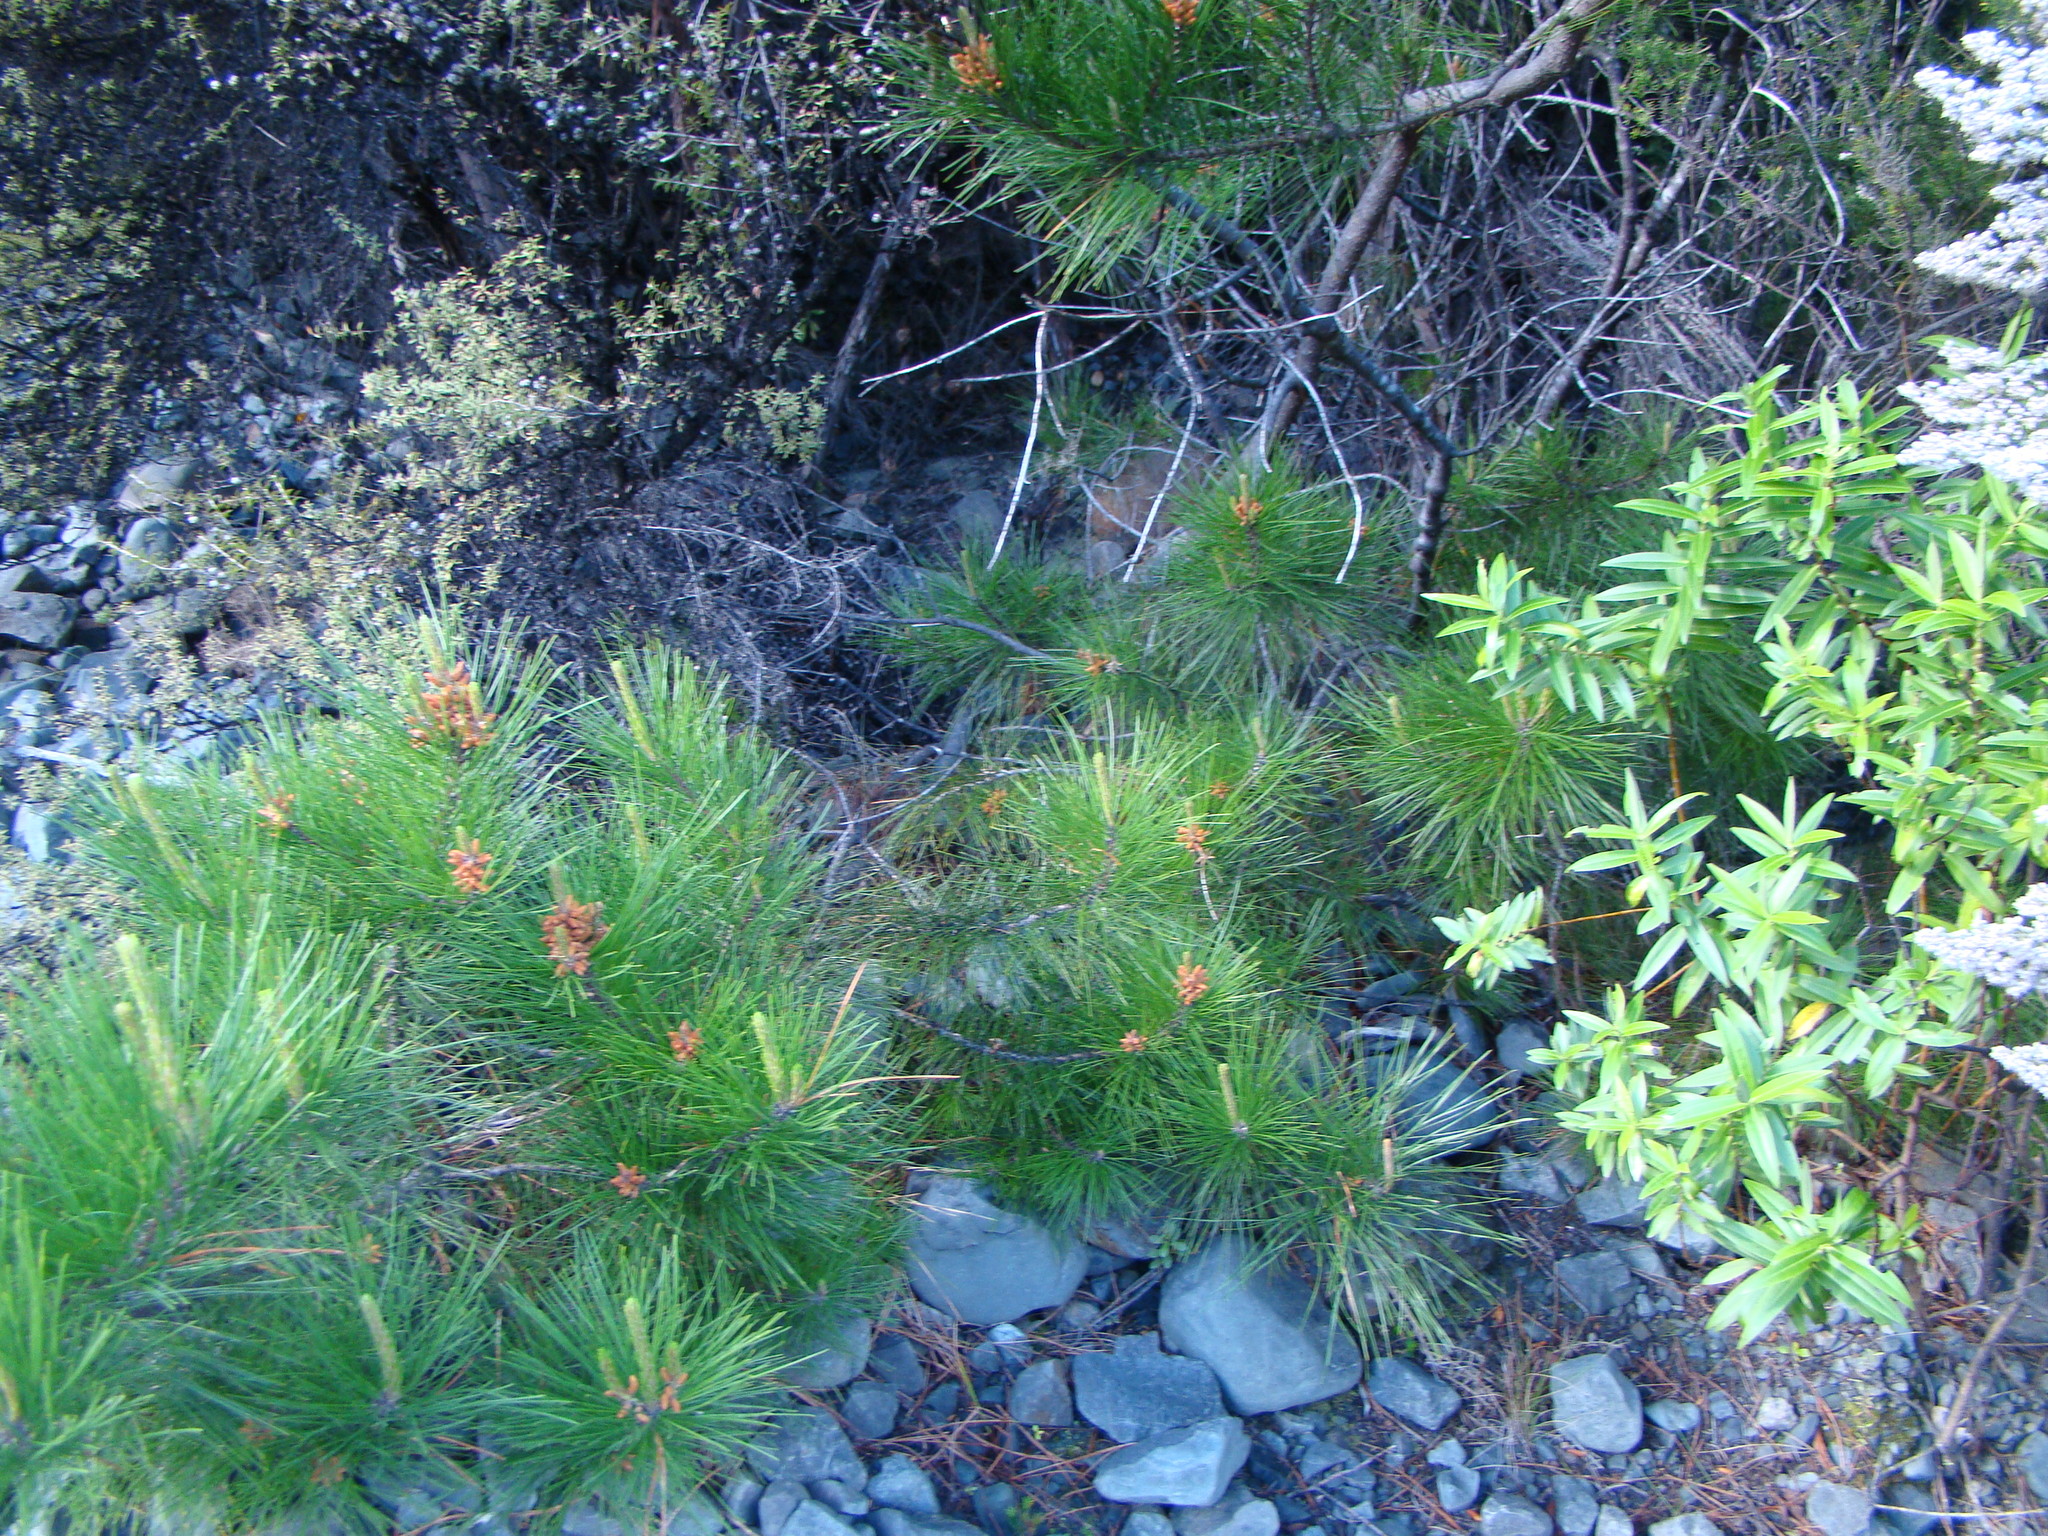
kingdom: Plantae
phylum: Tracheophyta
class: Pinopsida
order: Pinales
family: Pinaceae
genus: Pinus
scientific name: Pinus radiata
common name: Monterey pine
